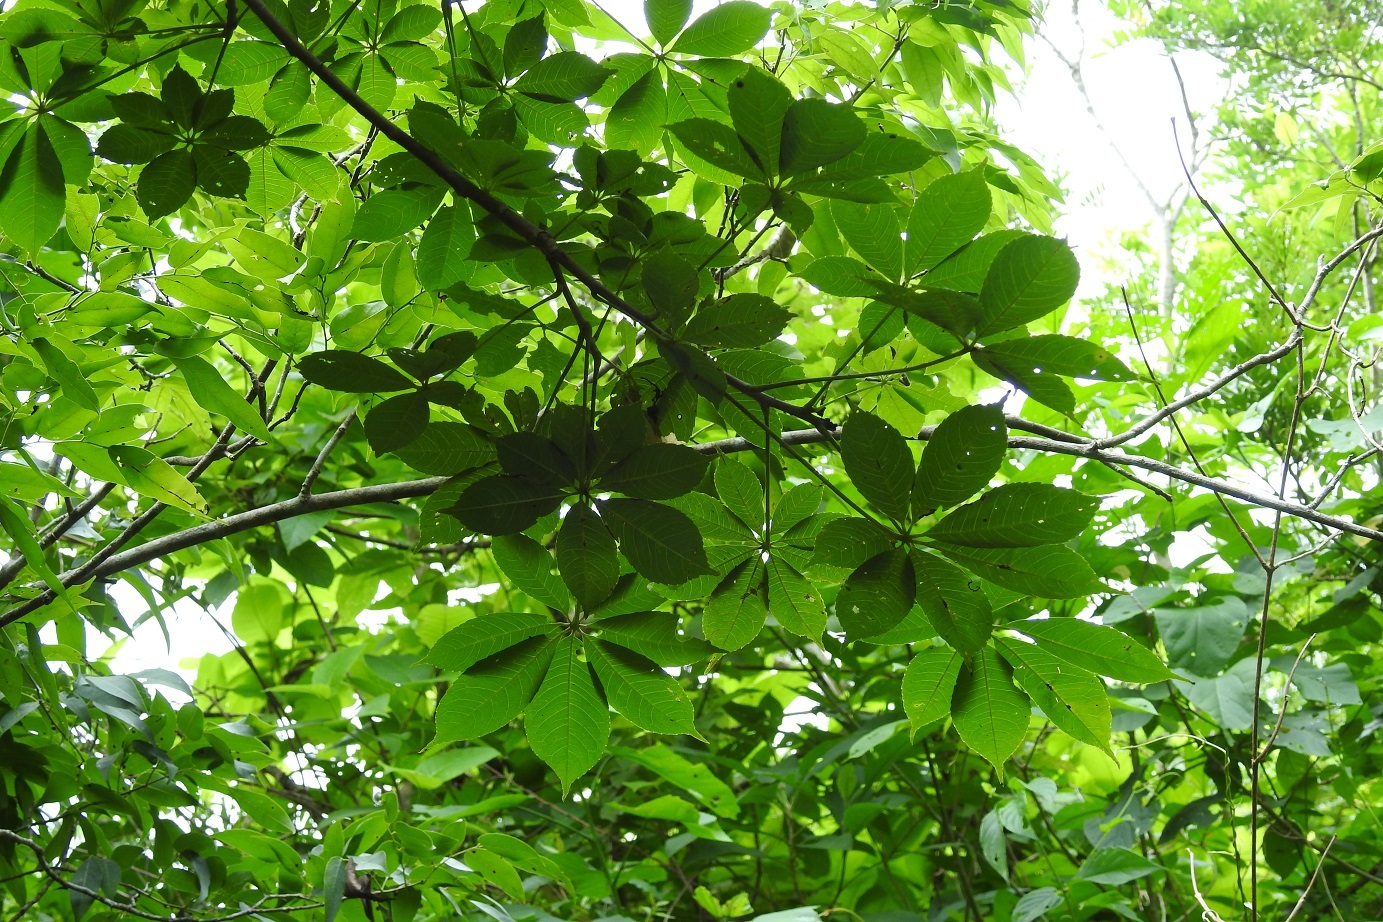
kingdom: Plantae
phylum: Tracheophyta
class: Magnoliopsida
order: Malvales
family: Malvaceae
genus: Ceiba
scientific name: Ceiba aesculifolia
